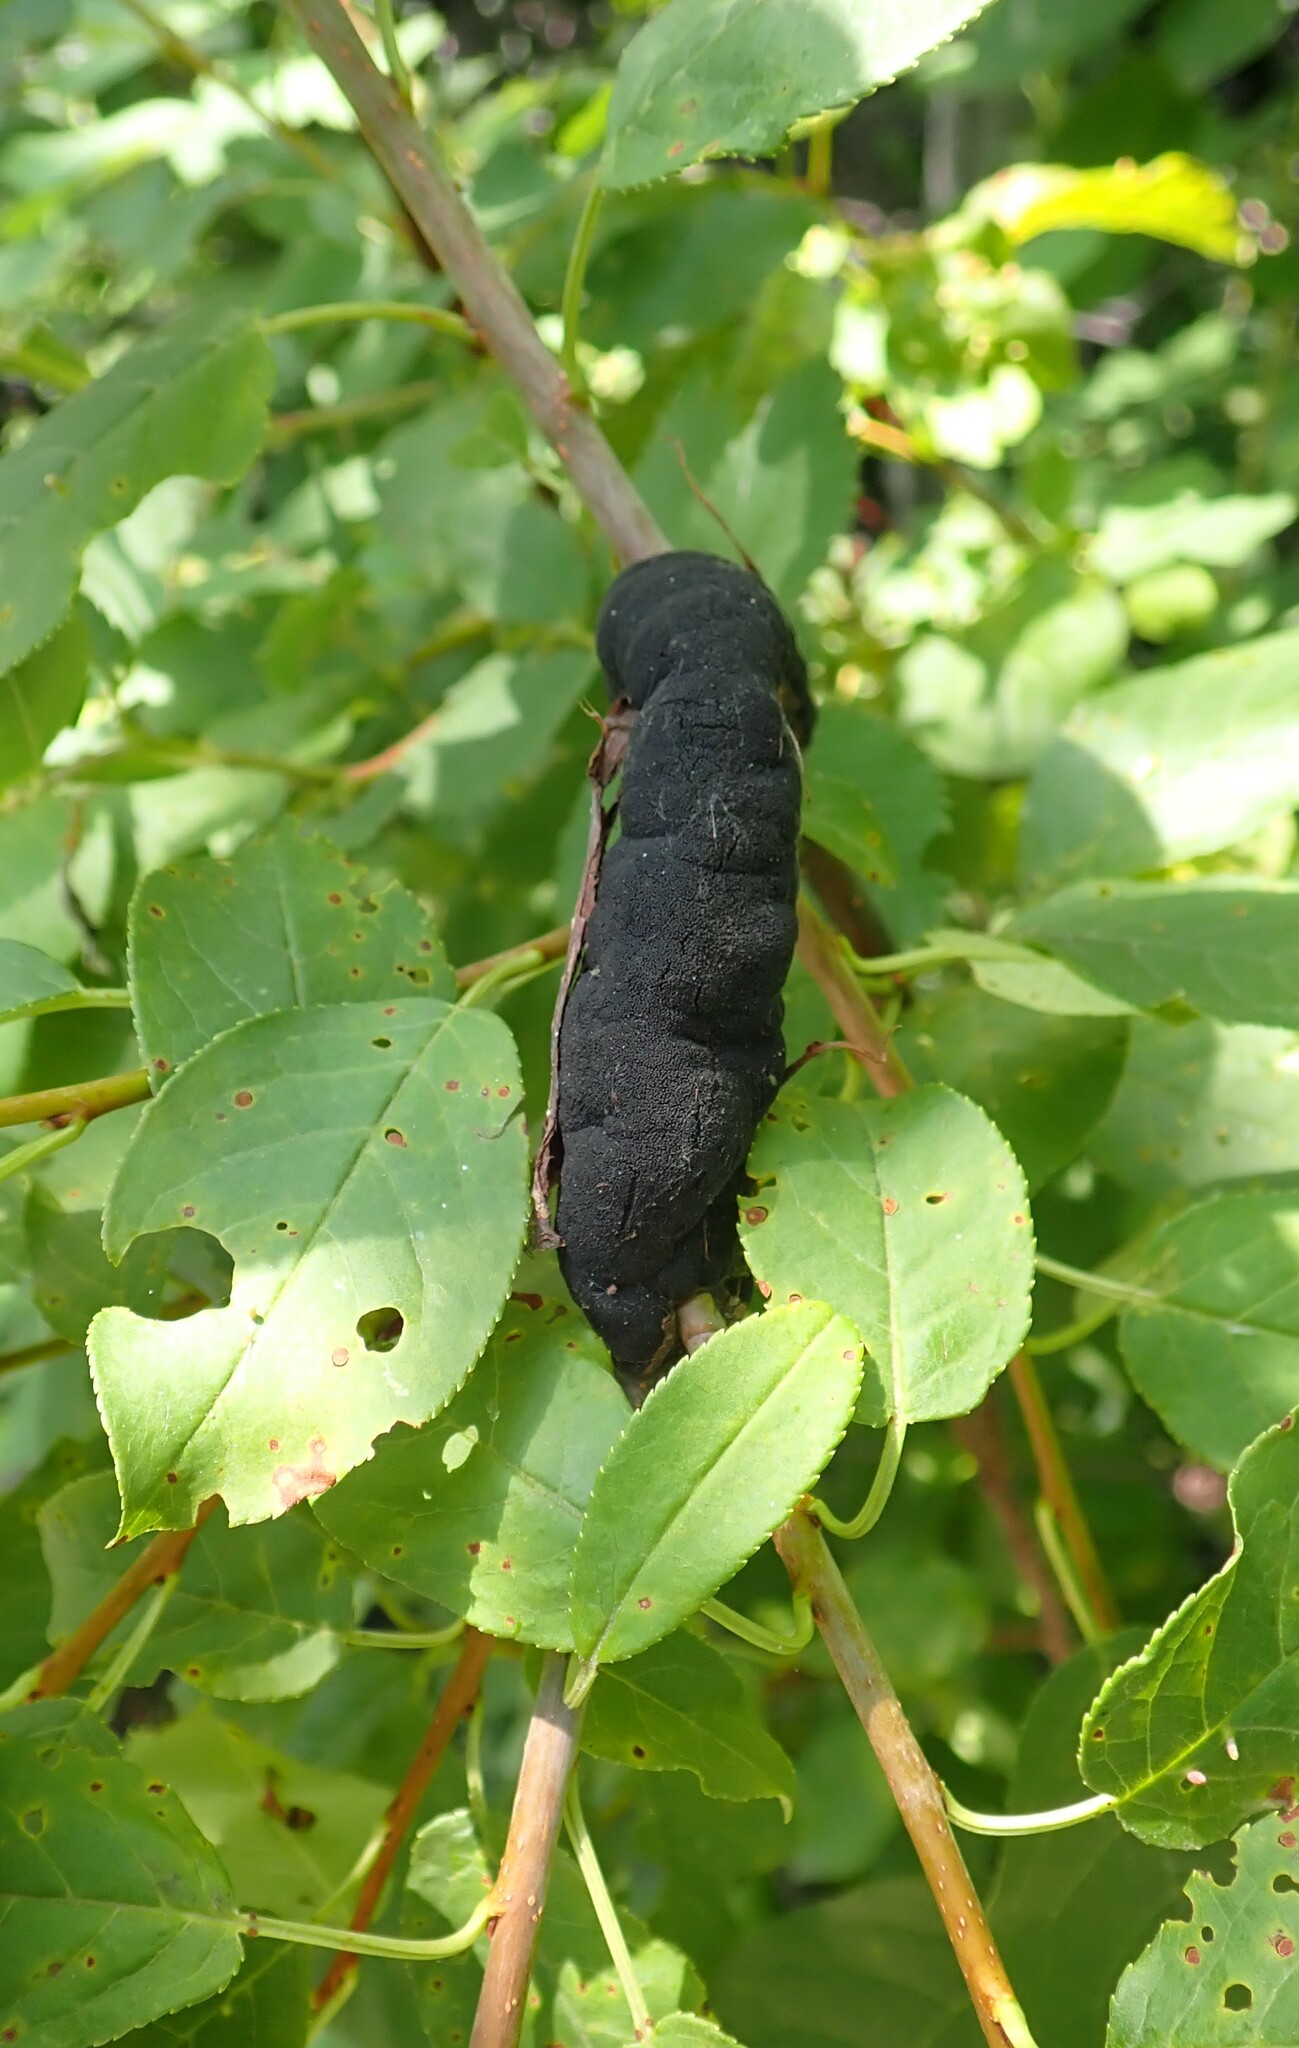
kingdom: Fungi
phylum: Ascomycota
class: Dothideomycetes
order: Venturiales
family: Venturiaceae
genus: Apiosporina
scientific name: Apiosporina morbosa
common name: Black knot
